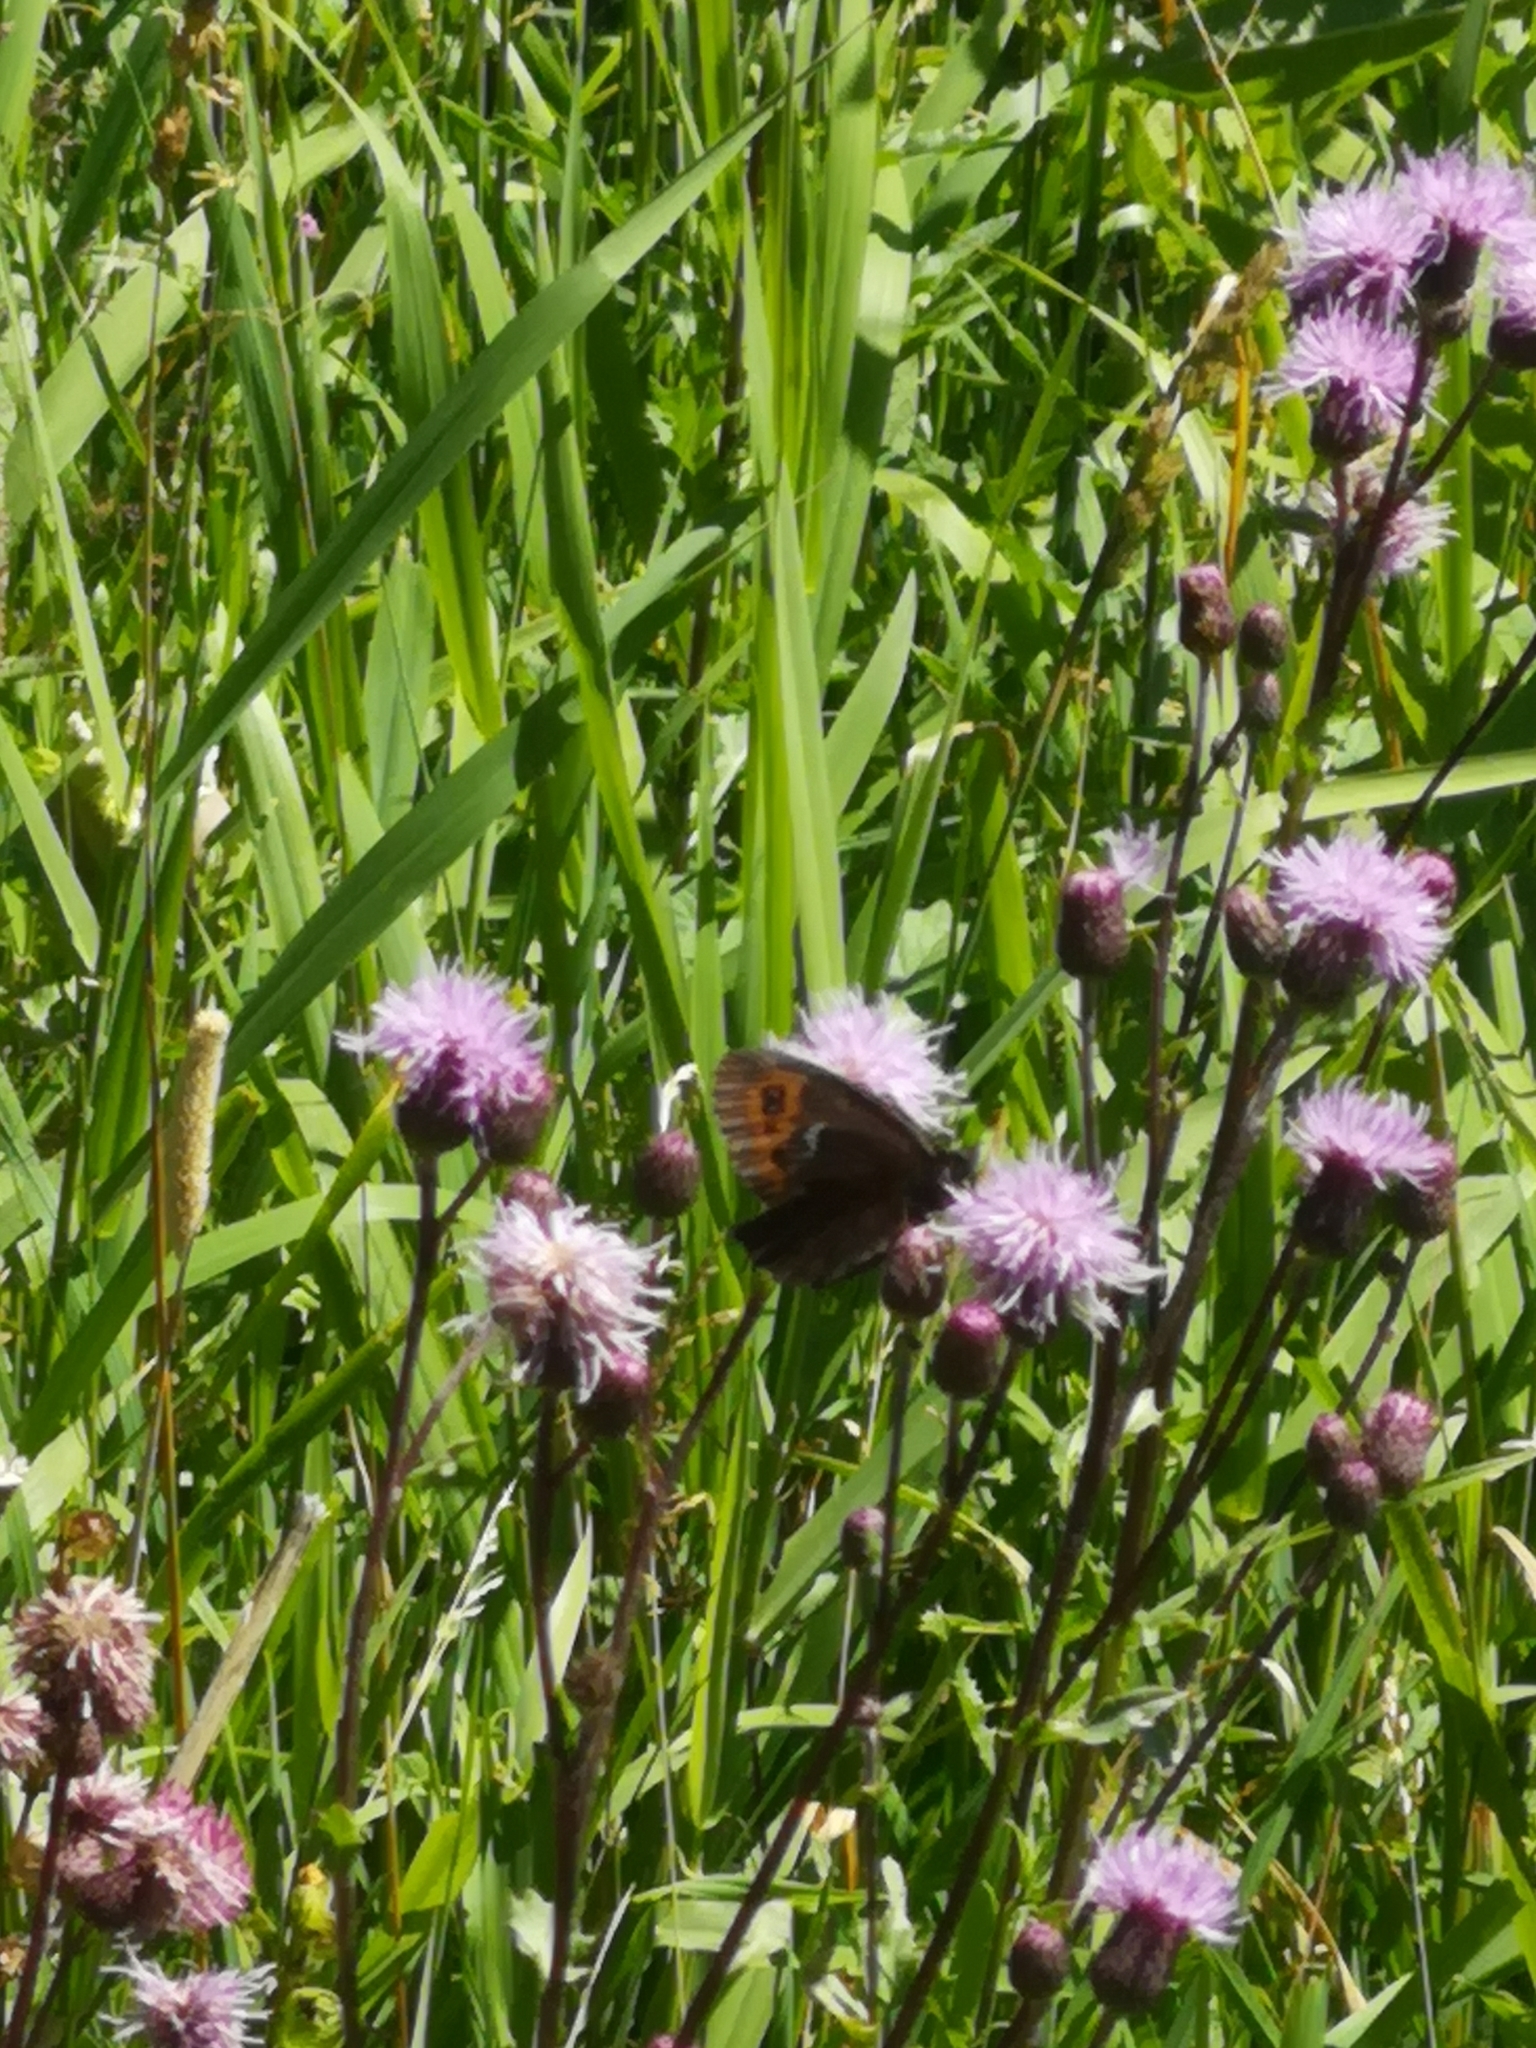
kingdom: Animalia
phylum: Arthropoda
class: Insecta
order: Lepidoptera
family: Nymphalidae
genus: Erebia
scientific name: Erebia ligea
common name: Arran brown
